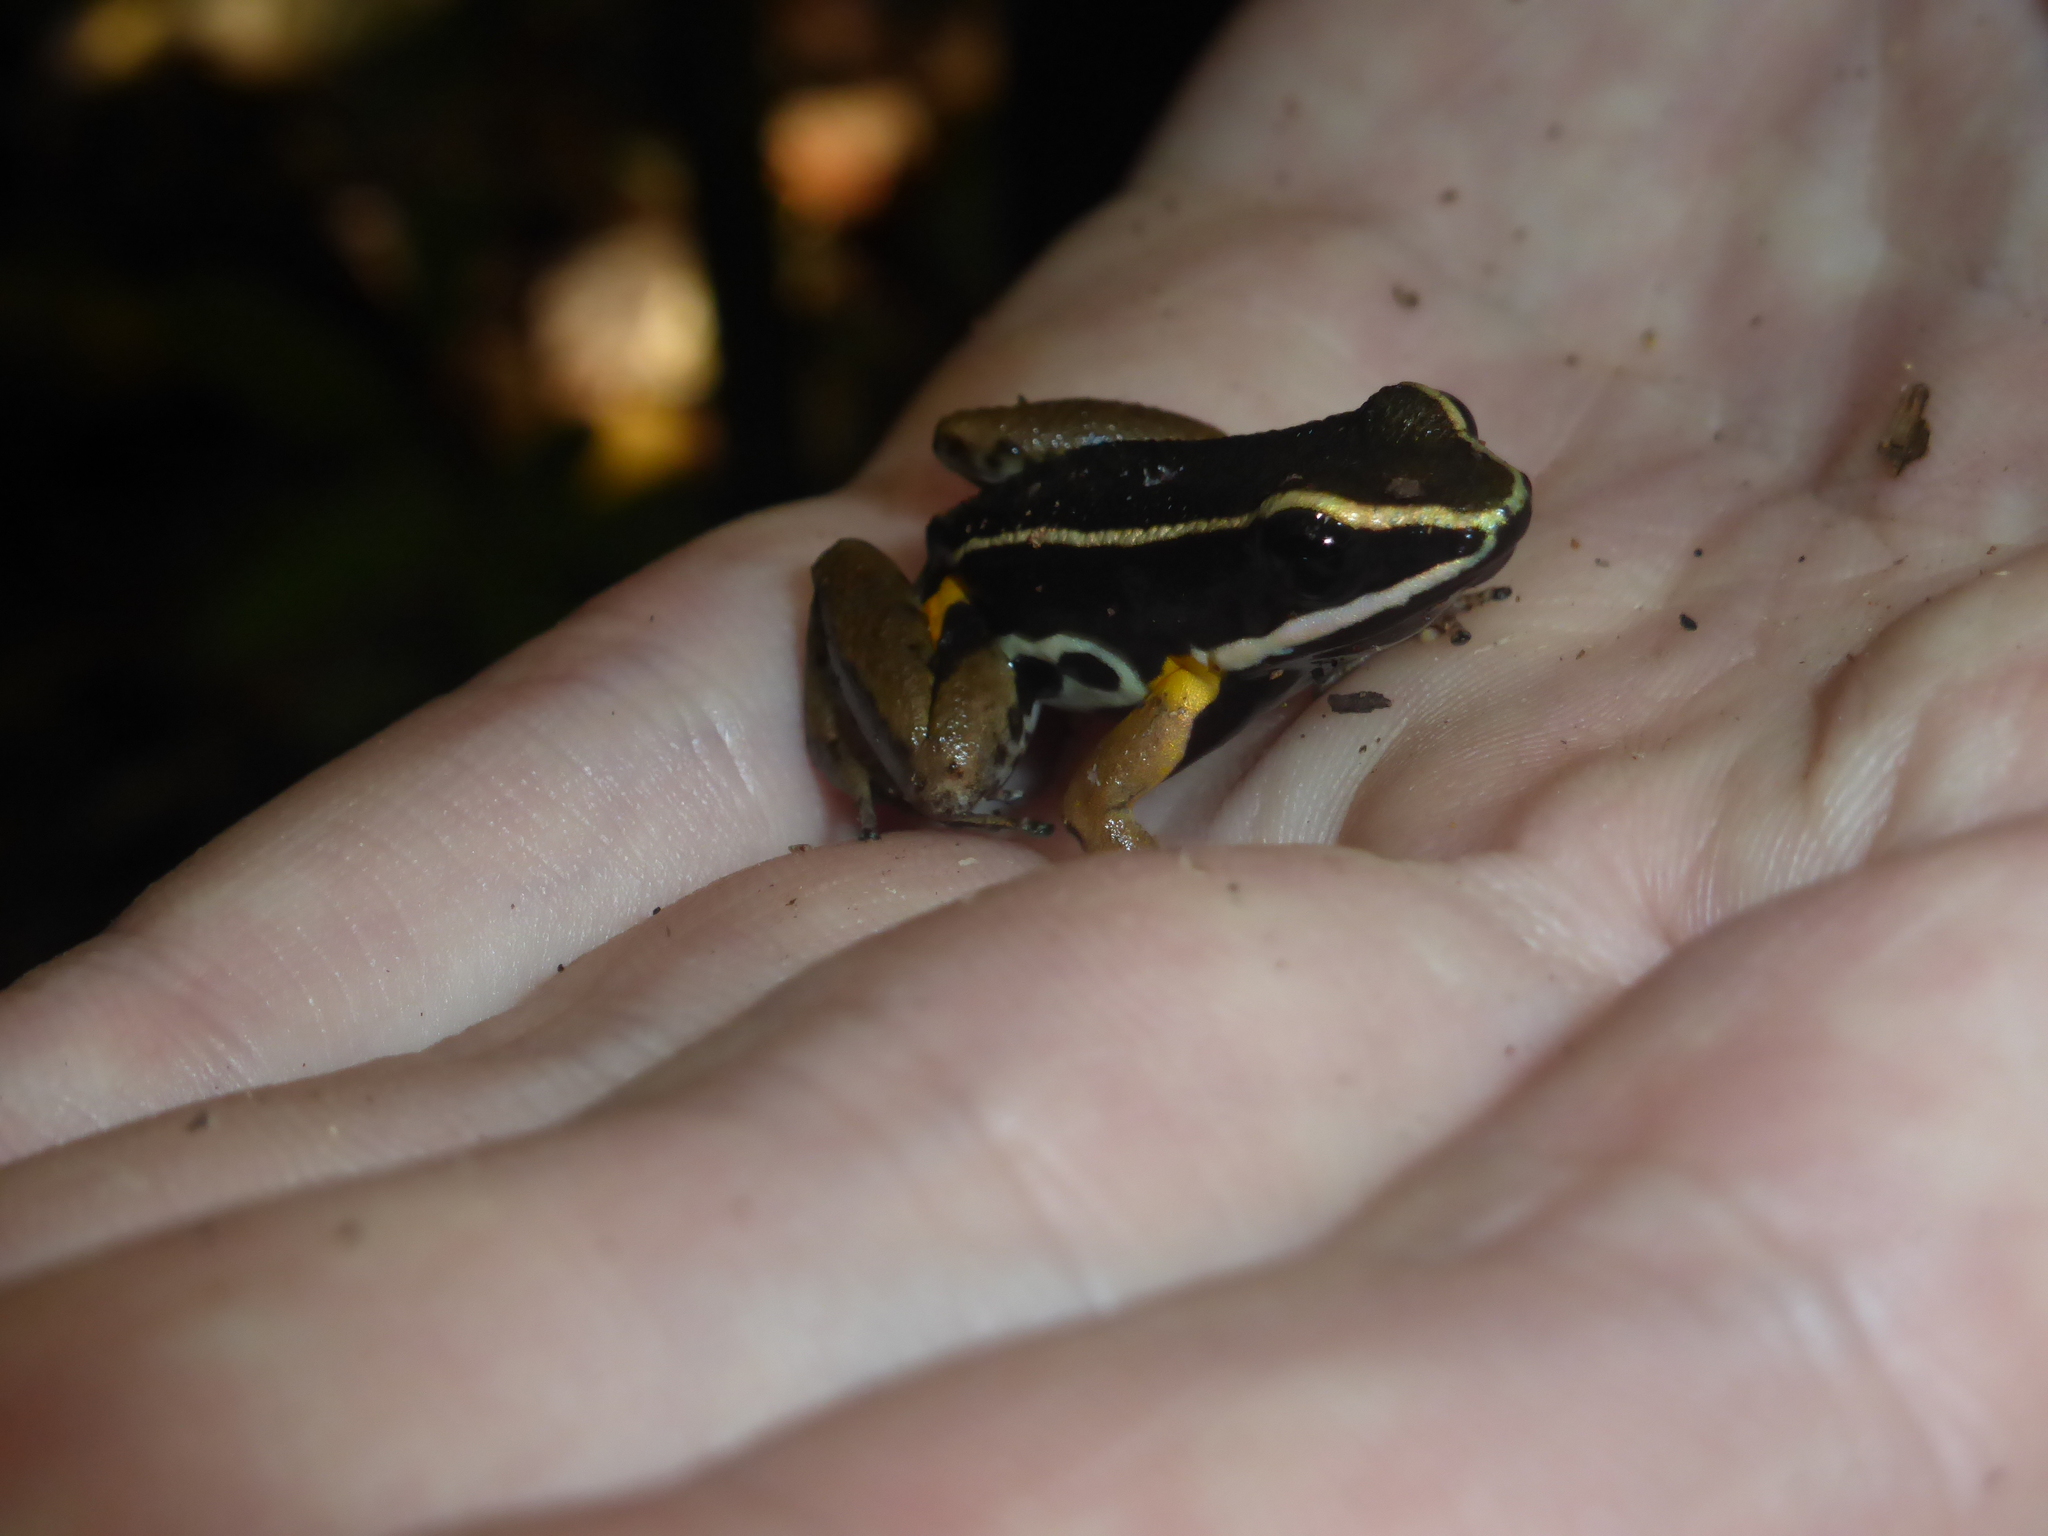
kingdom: Animalia
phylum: Chordata
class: Amphibia
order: Anura
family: Aromobatidae
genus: Allobates
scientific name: Allobates femoralis
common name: Brilliant-thighed poison frog
